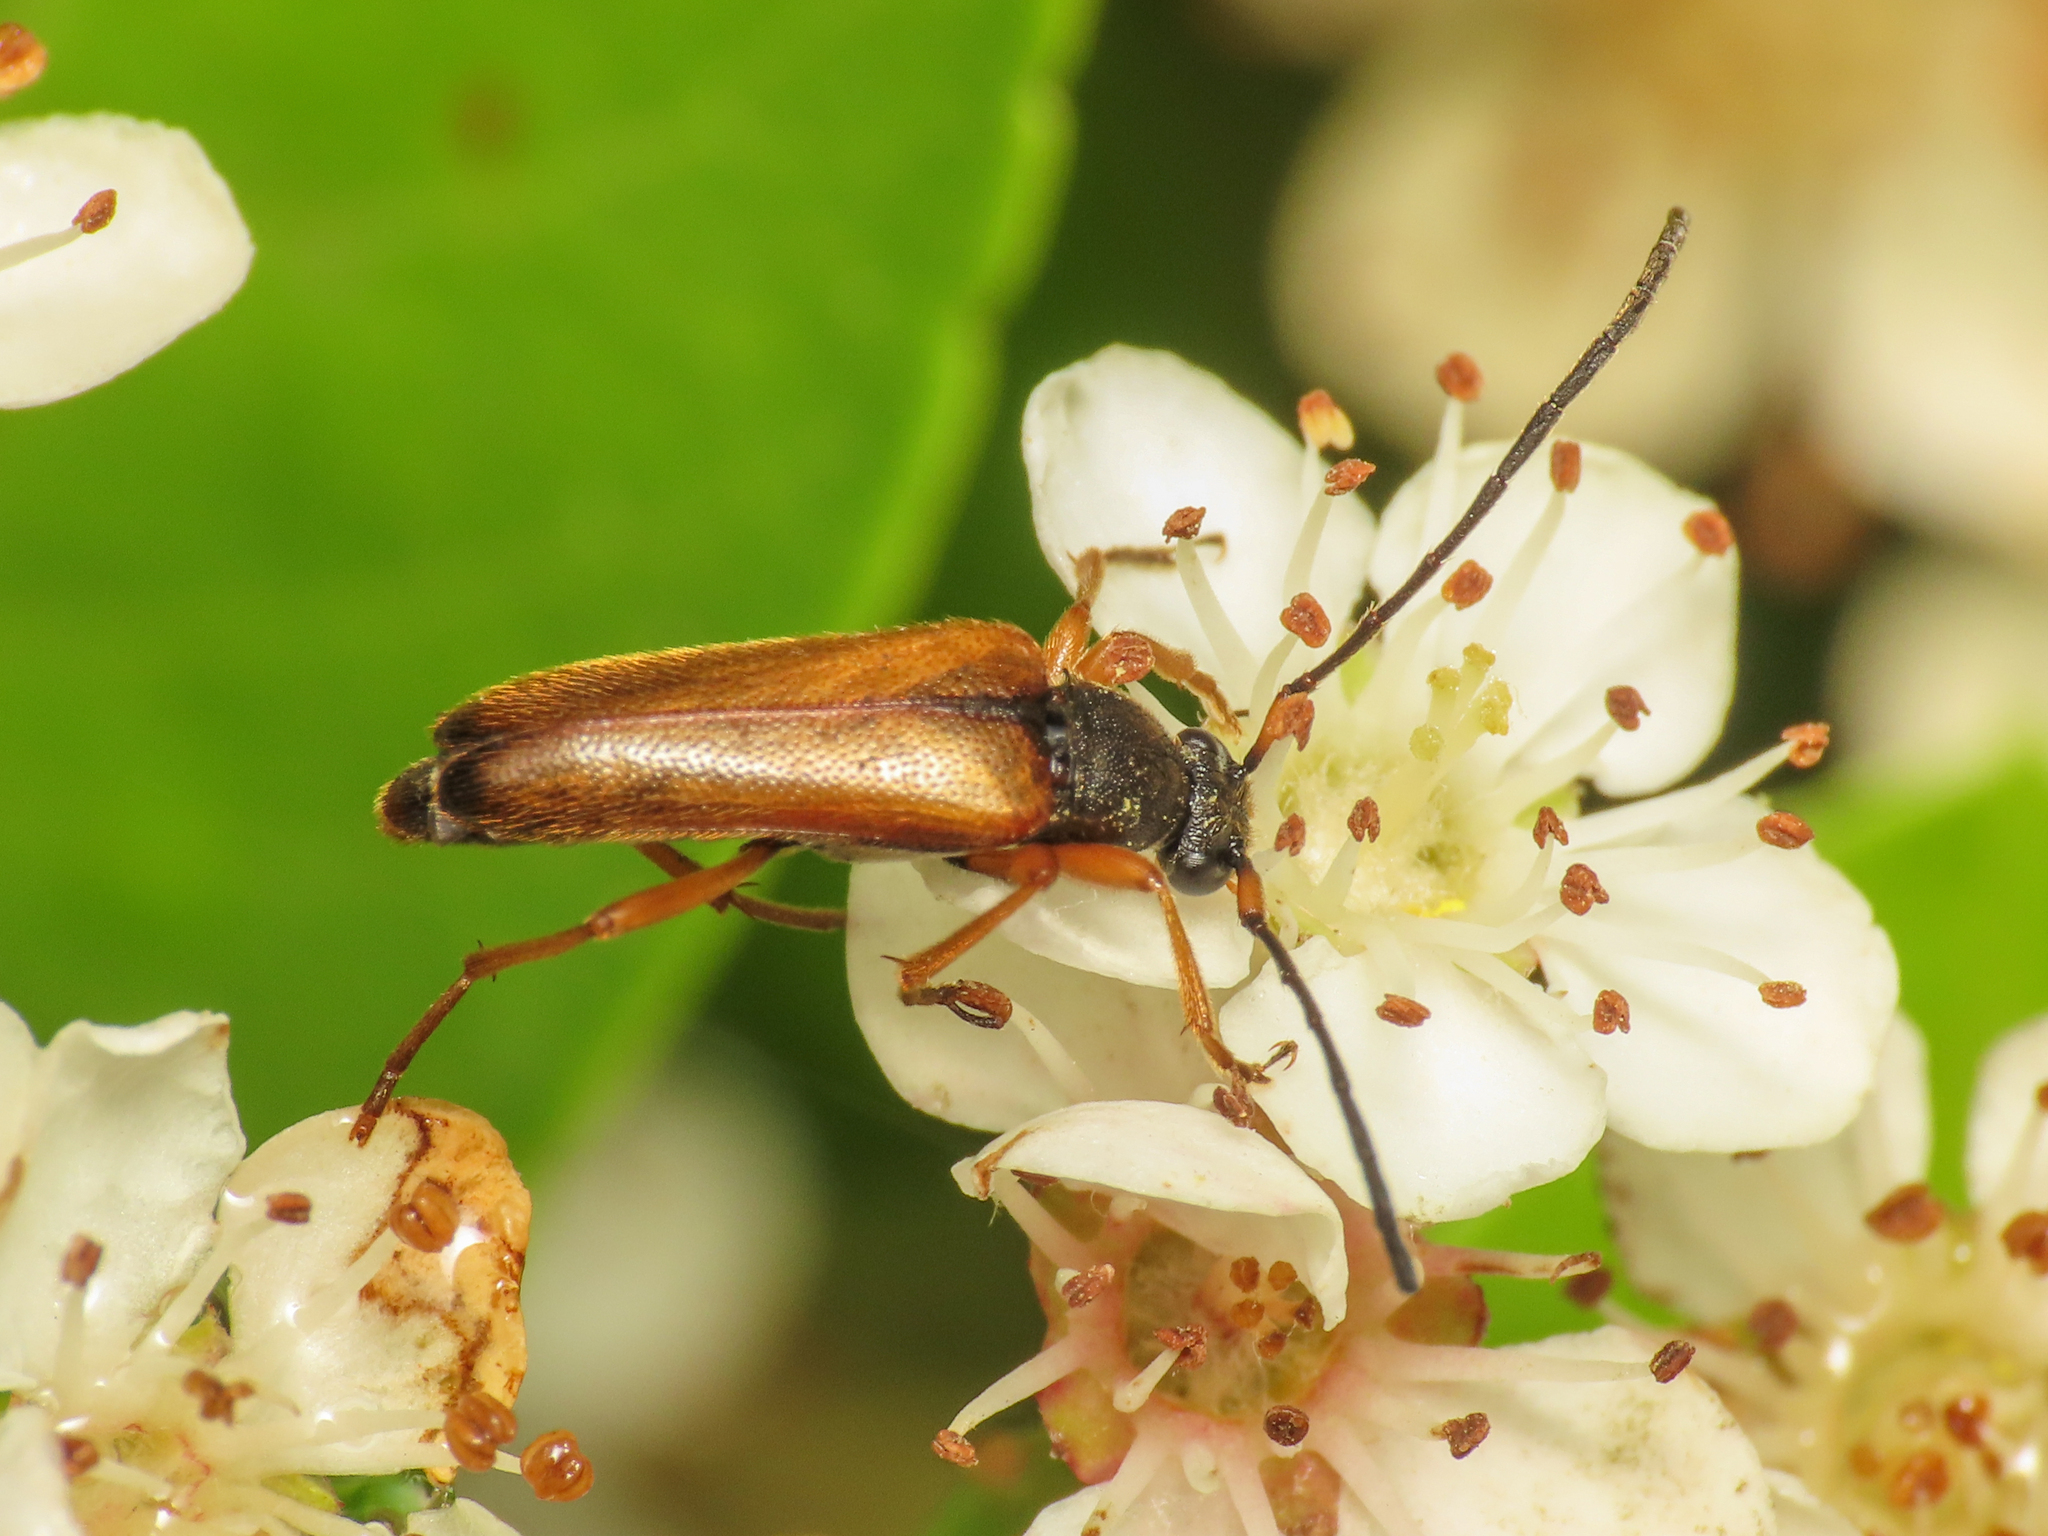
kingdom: Animalia
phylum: Arthropoda
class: Insecta
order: Coleoptera
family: Cerambycidae
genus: Alosterna
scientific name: Alosterna tabacicolor
